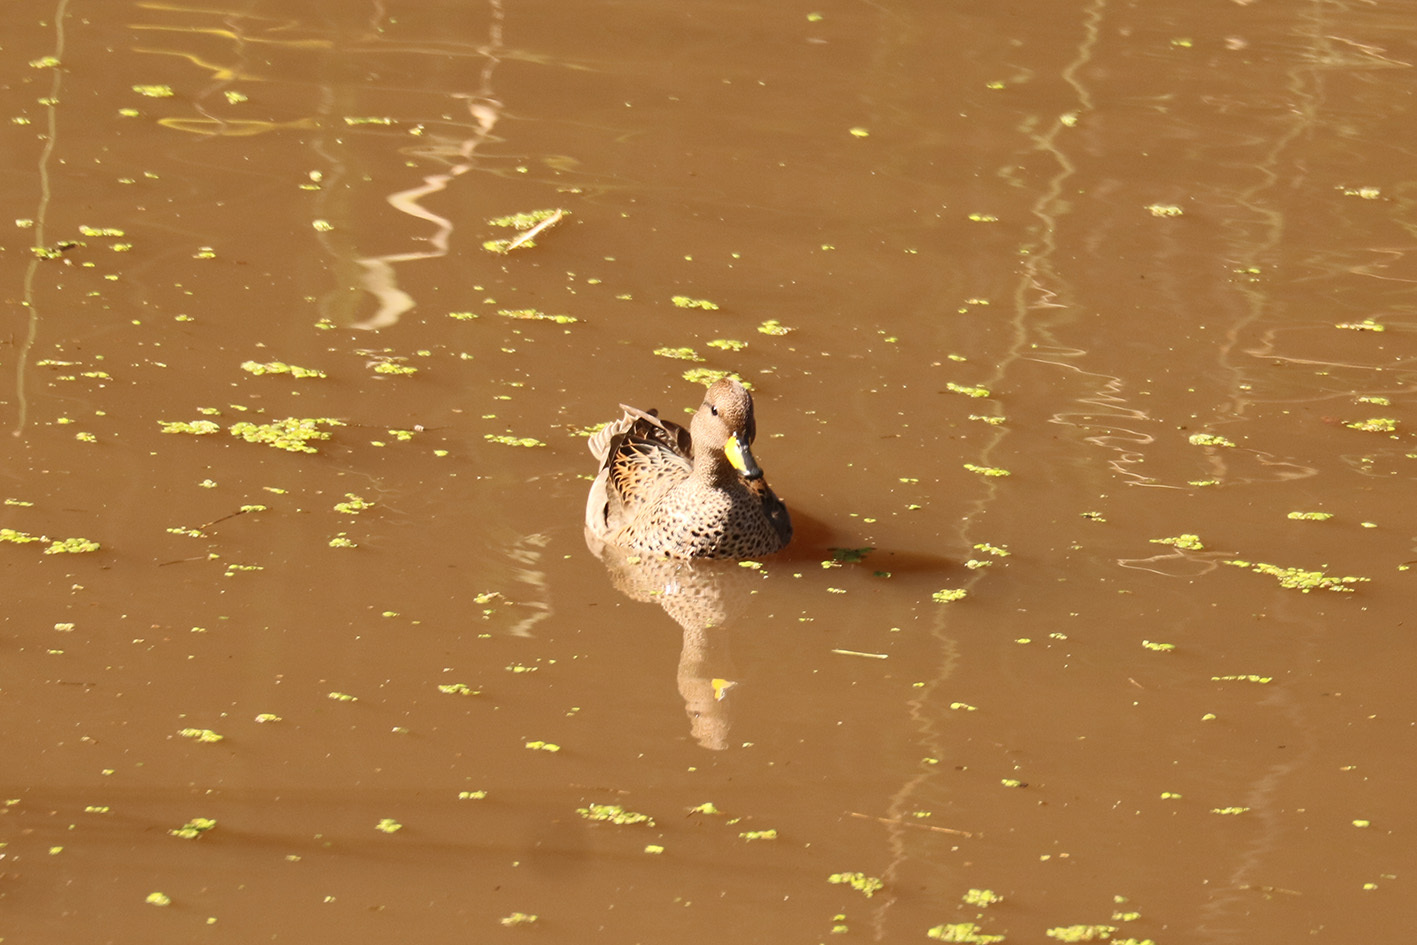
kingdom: Animalia
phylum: Chordata
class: Aves
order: Anseriformes
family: Anatidae
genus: Anas
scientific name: Anas flavirostris
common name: Yellow-billed teal
